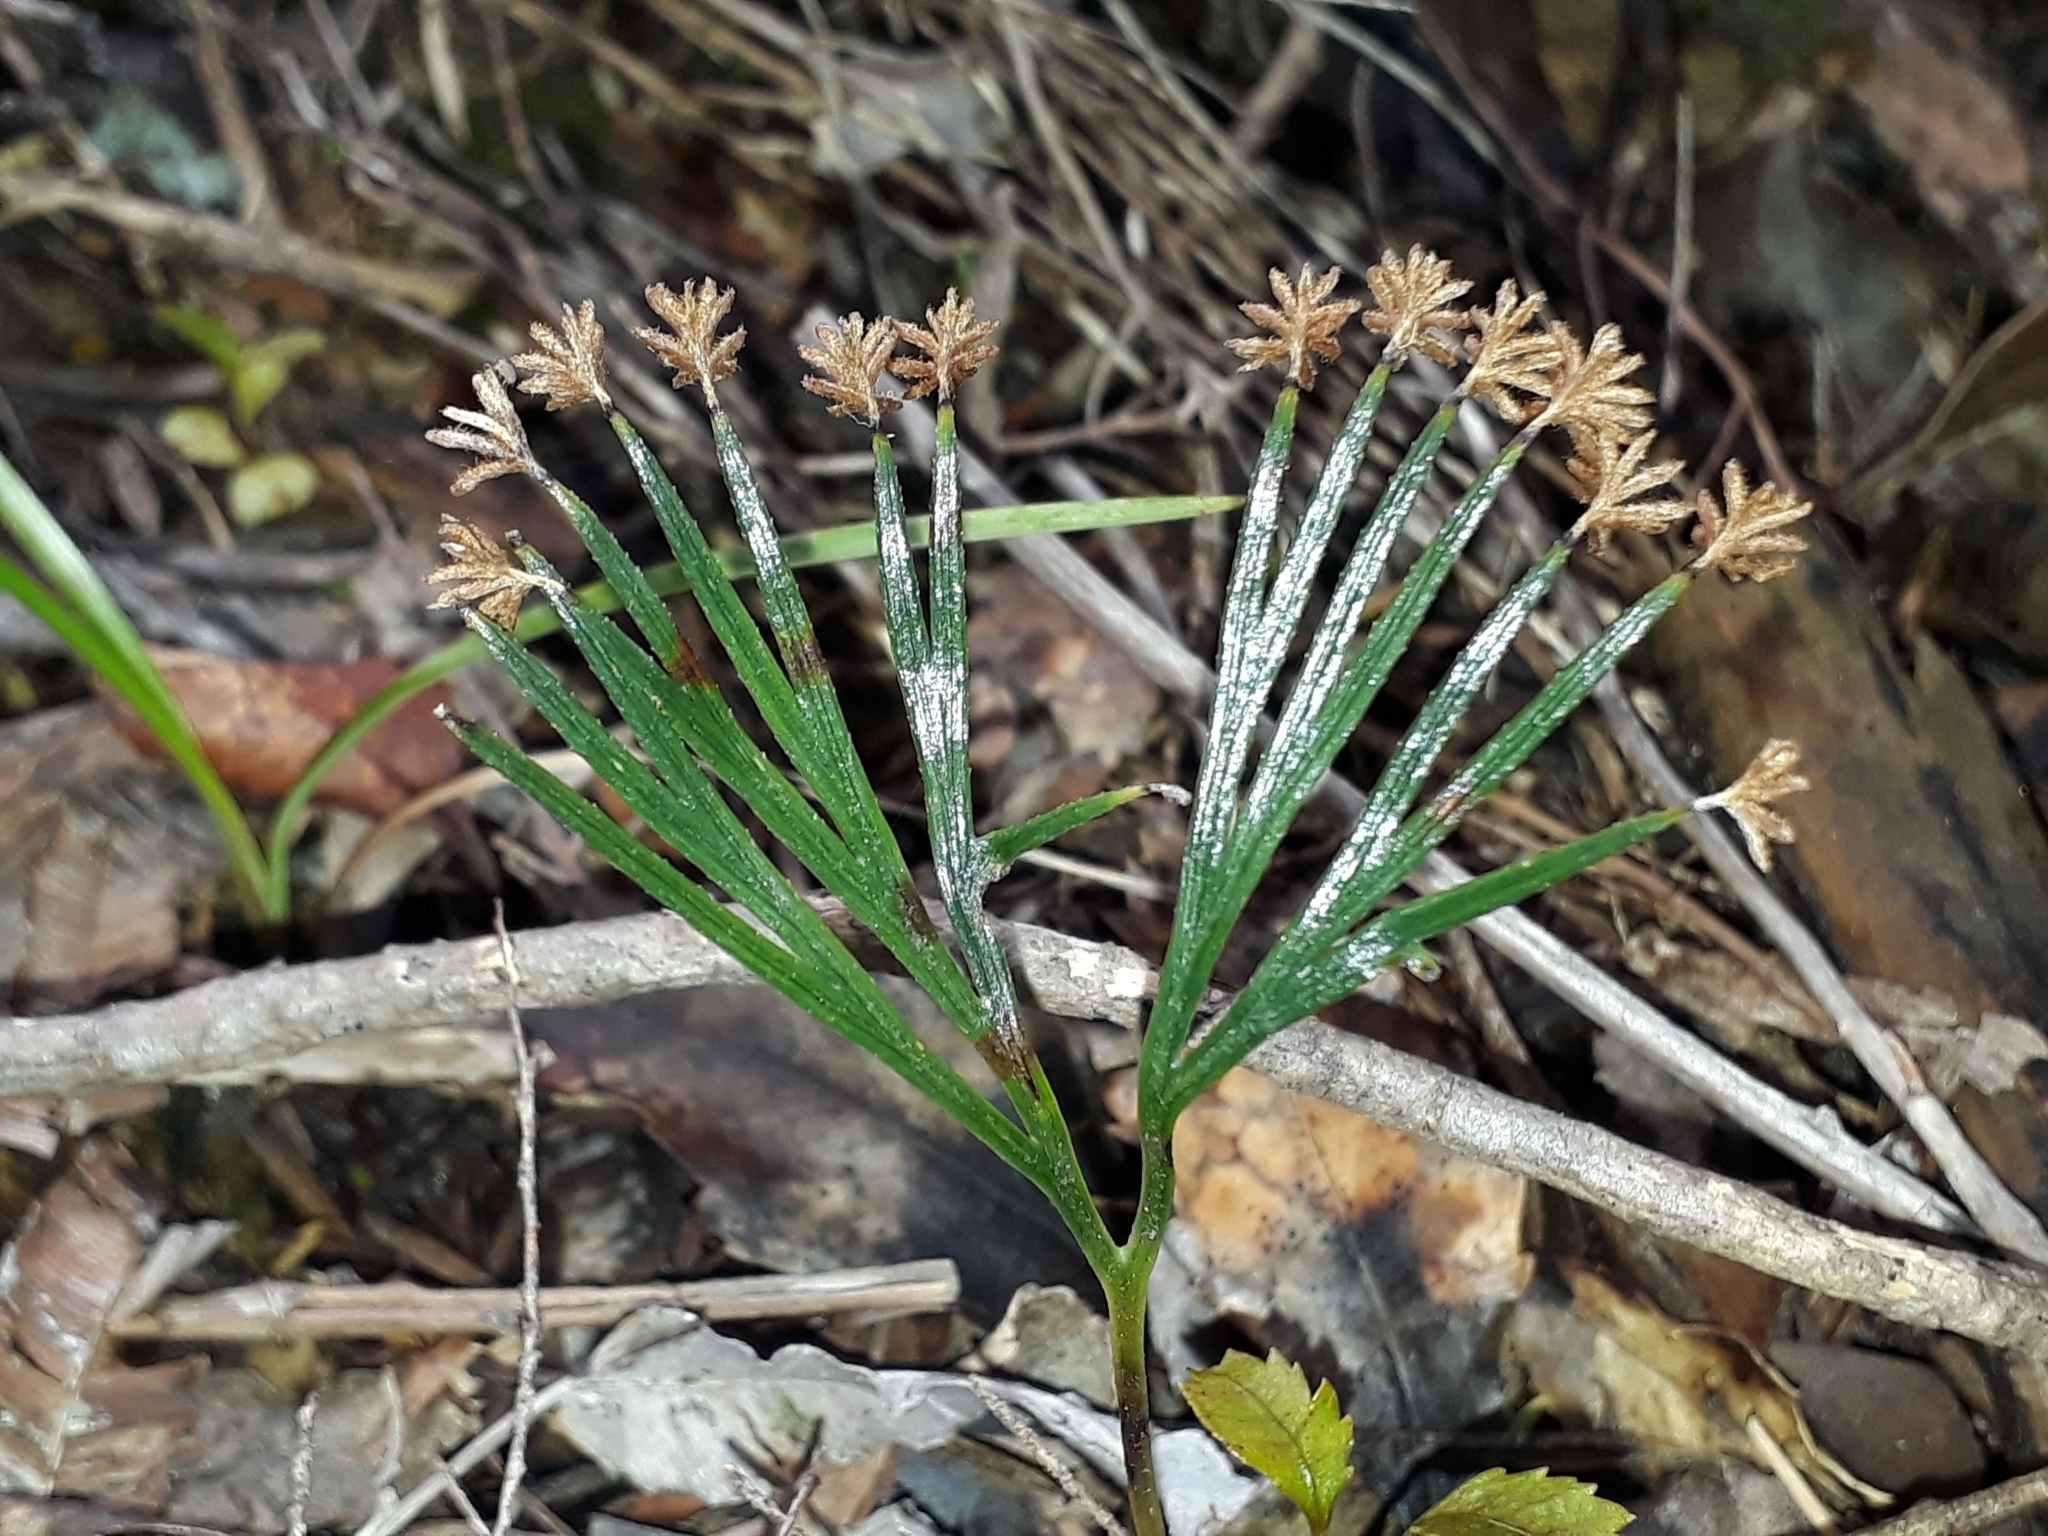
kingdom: Plantae
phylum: Tracheophyta
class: Polypodiopsida
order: Schizaeales
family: Schizaeaceae
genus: Schizaea
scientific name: Schizaea dichotoma
